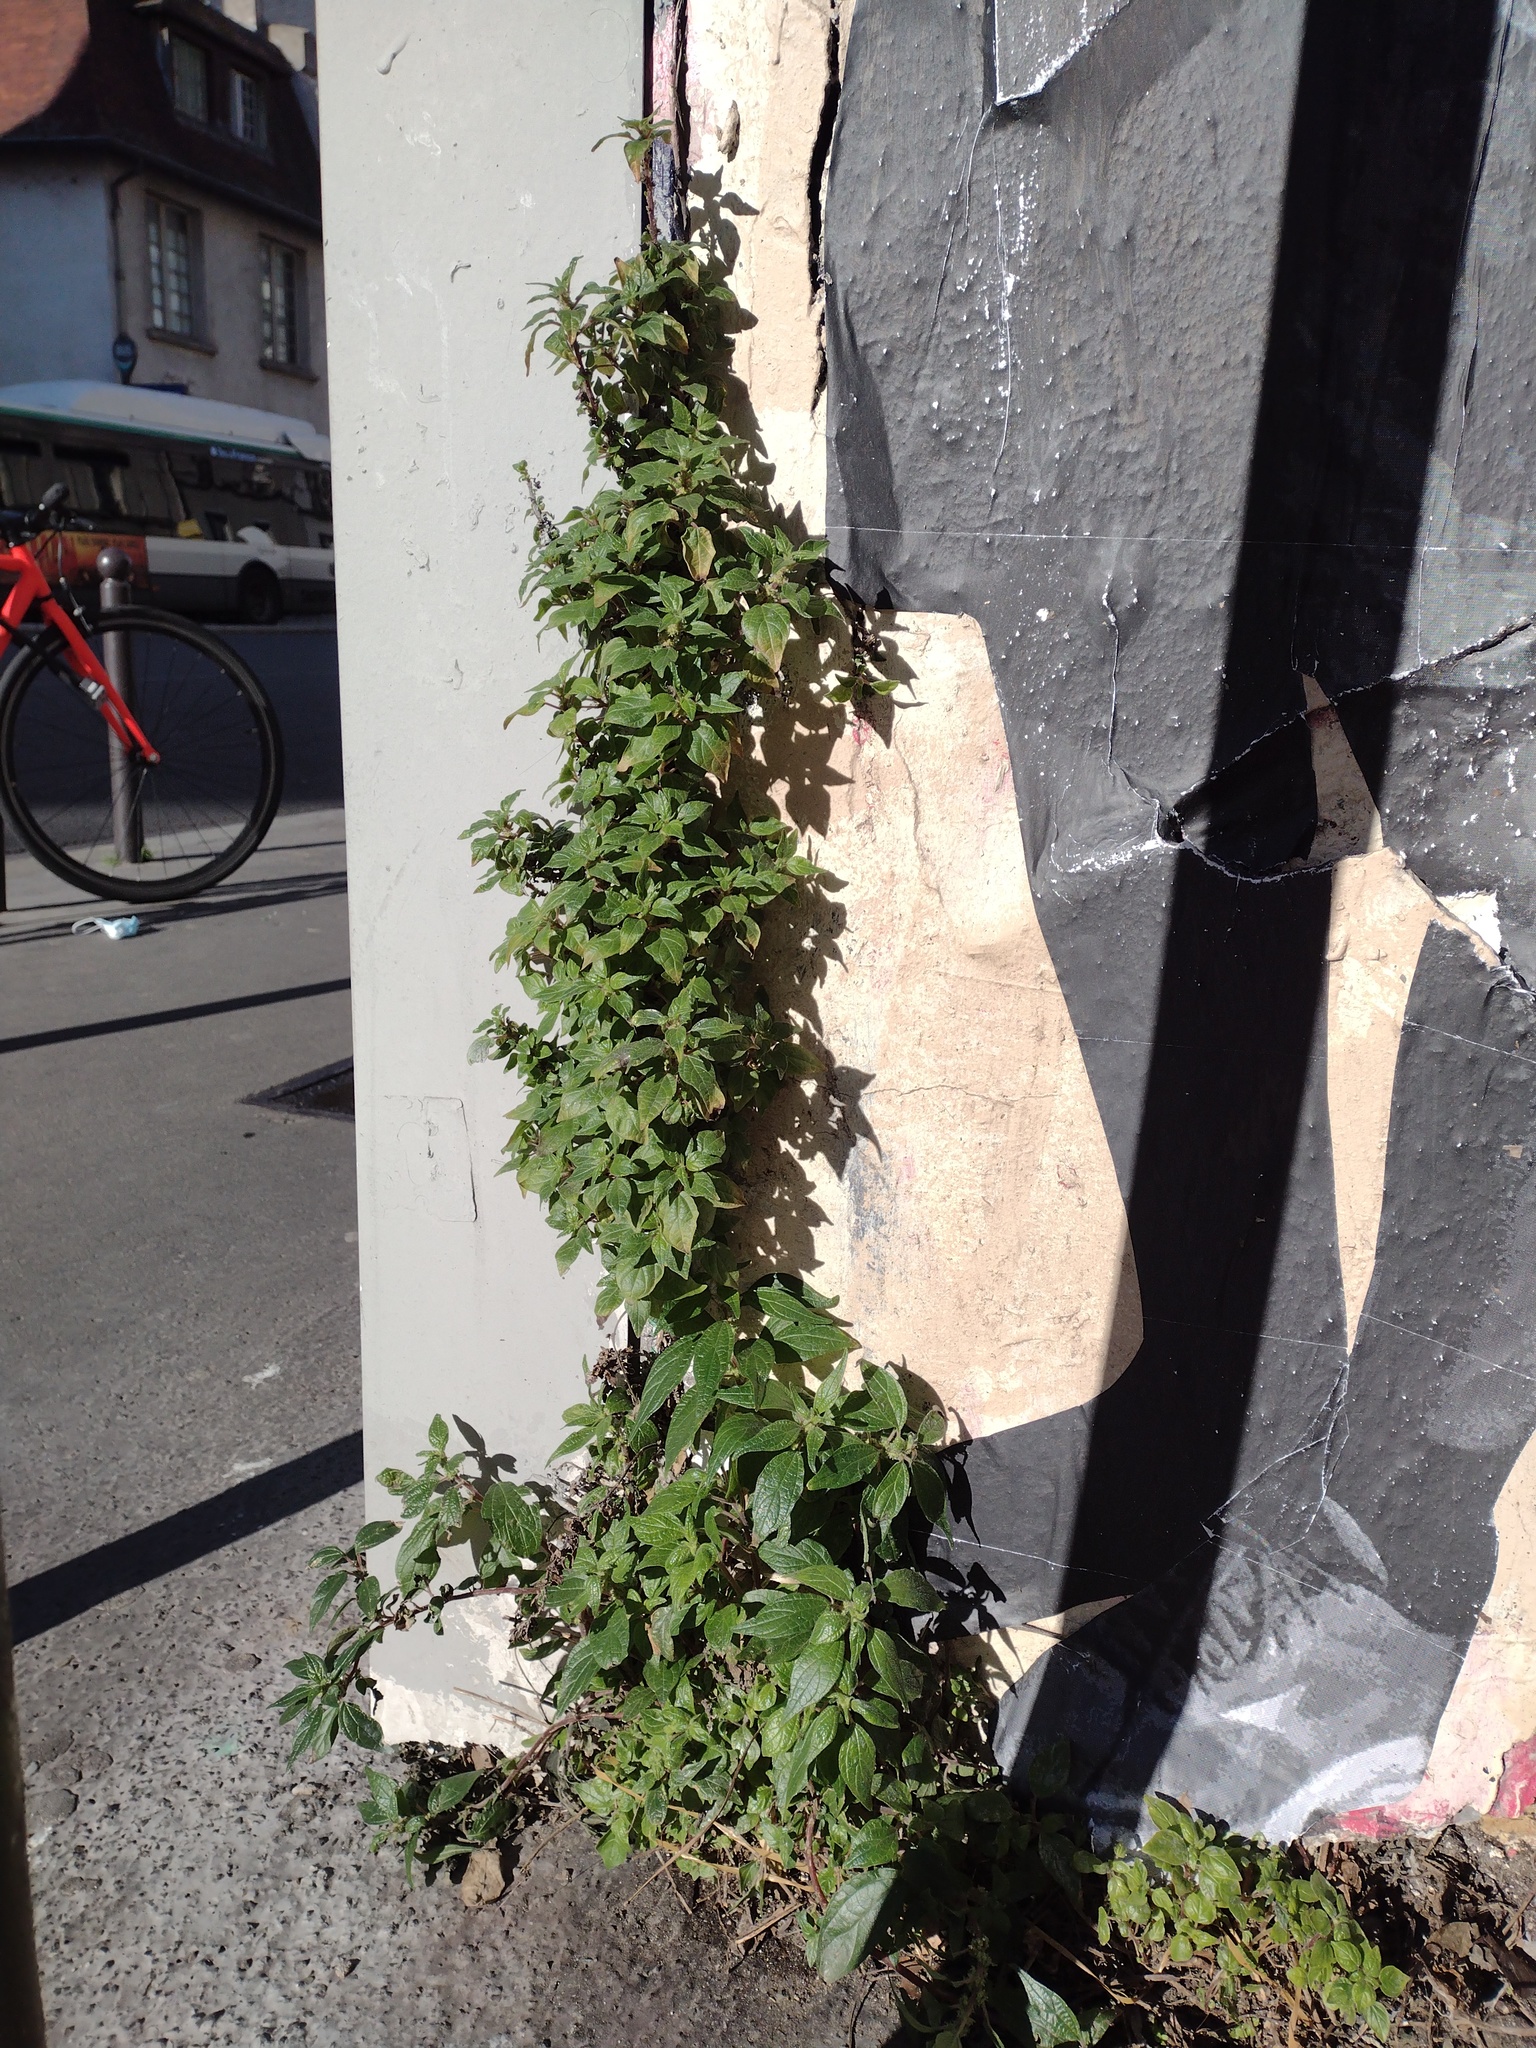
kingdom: Plantae
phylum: Tracheophyta
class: Magnoliopsida
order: Rosales
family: Urticaceae
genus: Parietaria
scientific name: Parietaria judaica
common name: Pellitory-of-the-wall
